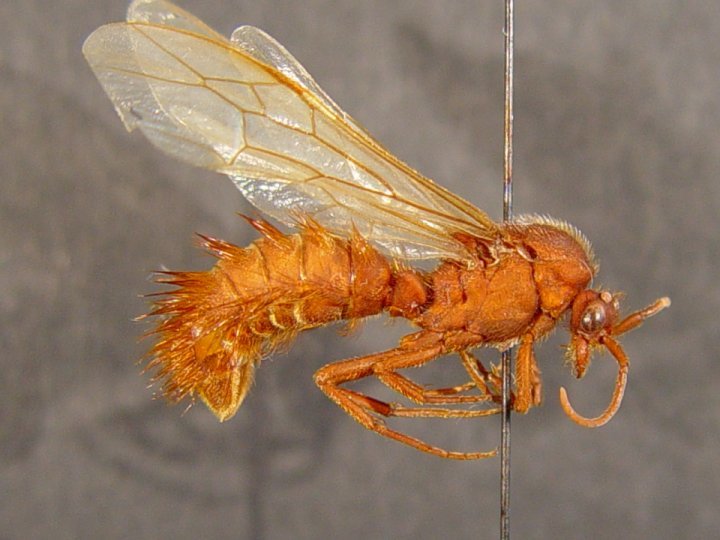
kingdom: Animalia
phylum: Arthropoda
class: Insecta
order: Hymenoptera
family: Formicidae
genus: Nomamyrmex
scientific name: Nomamyrmex esenbeckii
